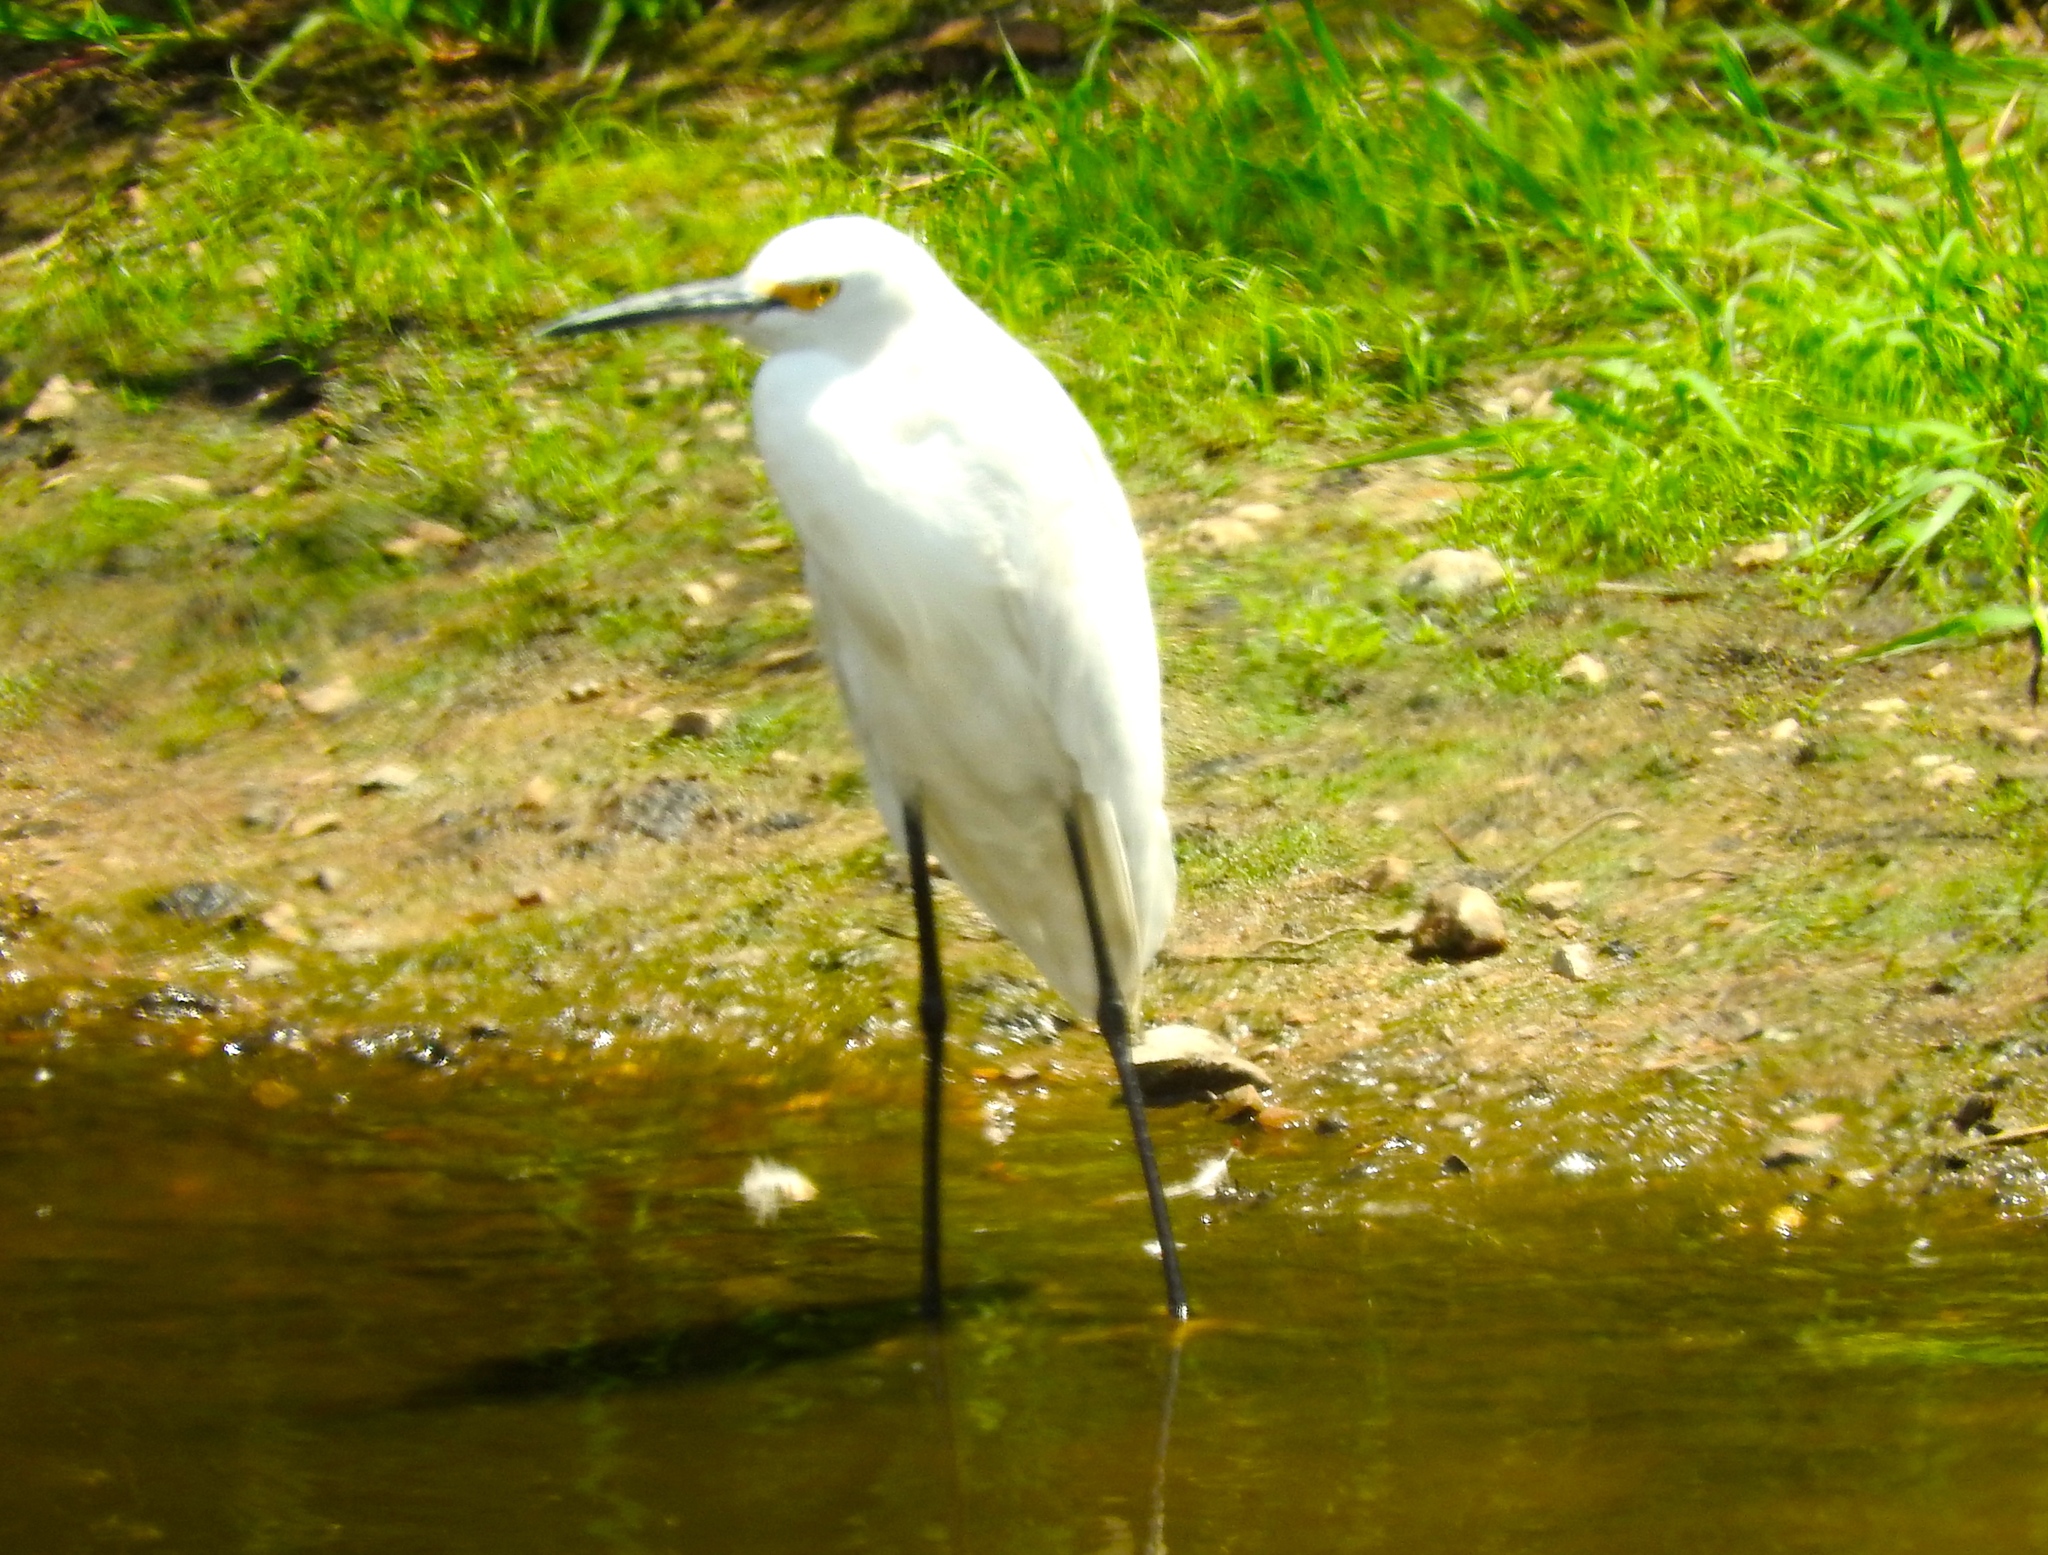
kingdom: Animalia
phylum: Chordata
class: Aves
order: Pelecaniformes
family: Ardeidae
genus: Egretta
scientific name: Egretta thula
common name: Snowy egret
